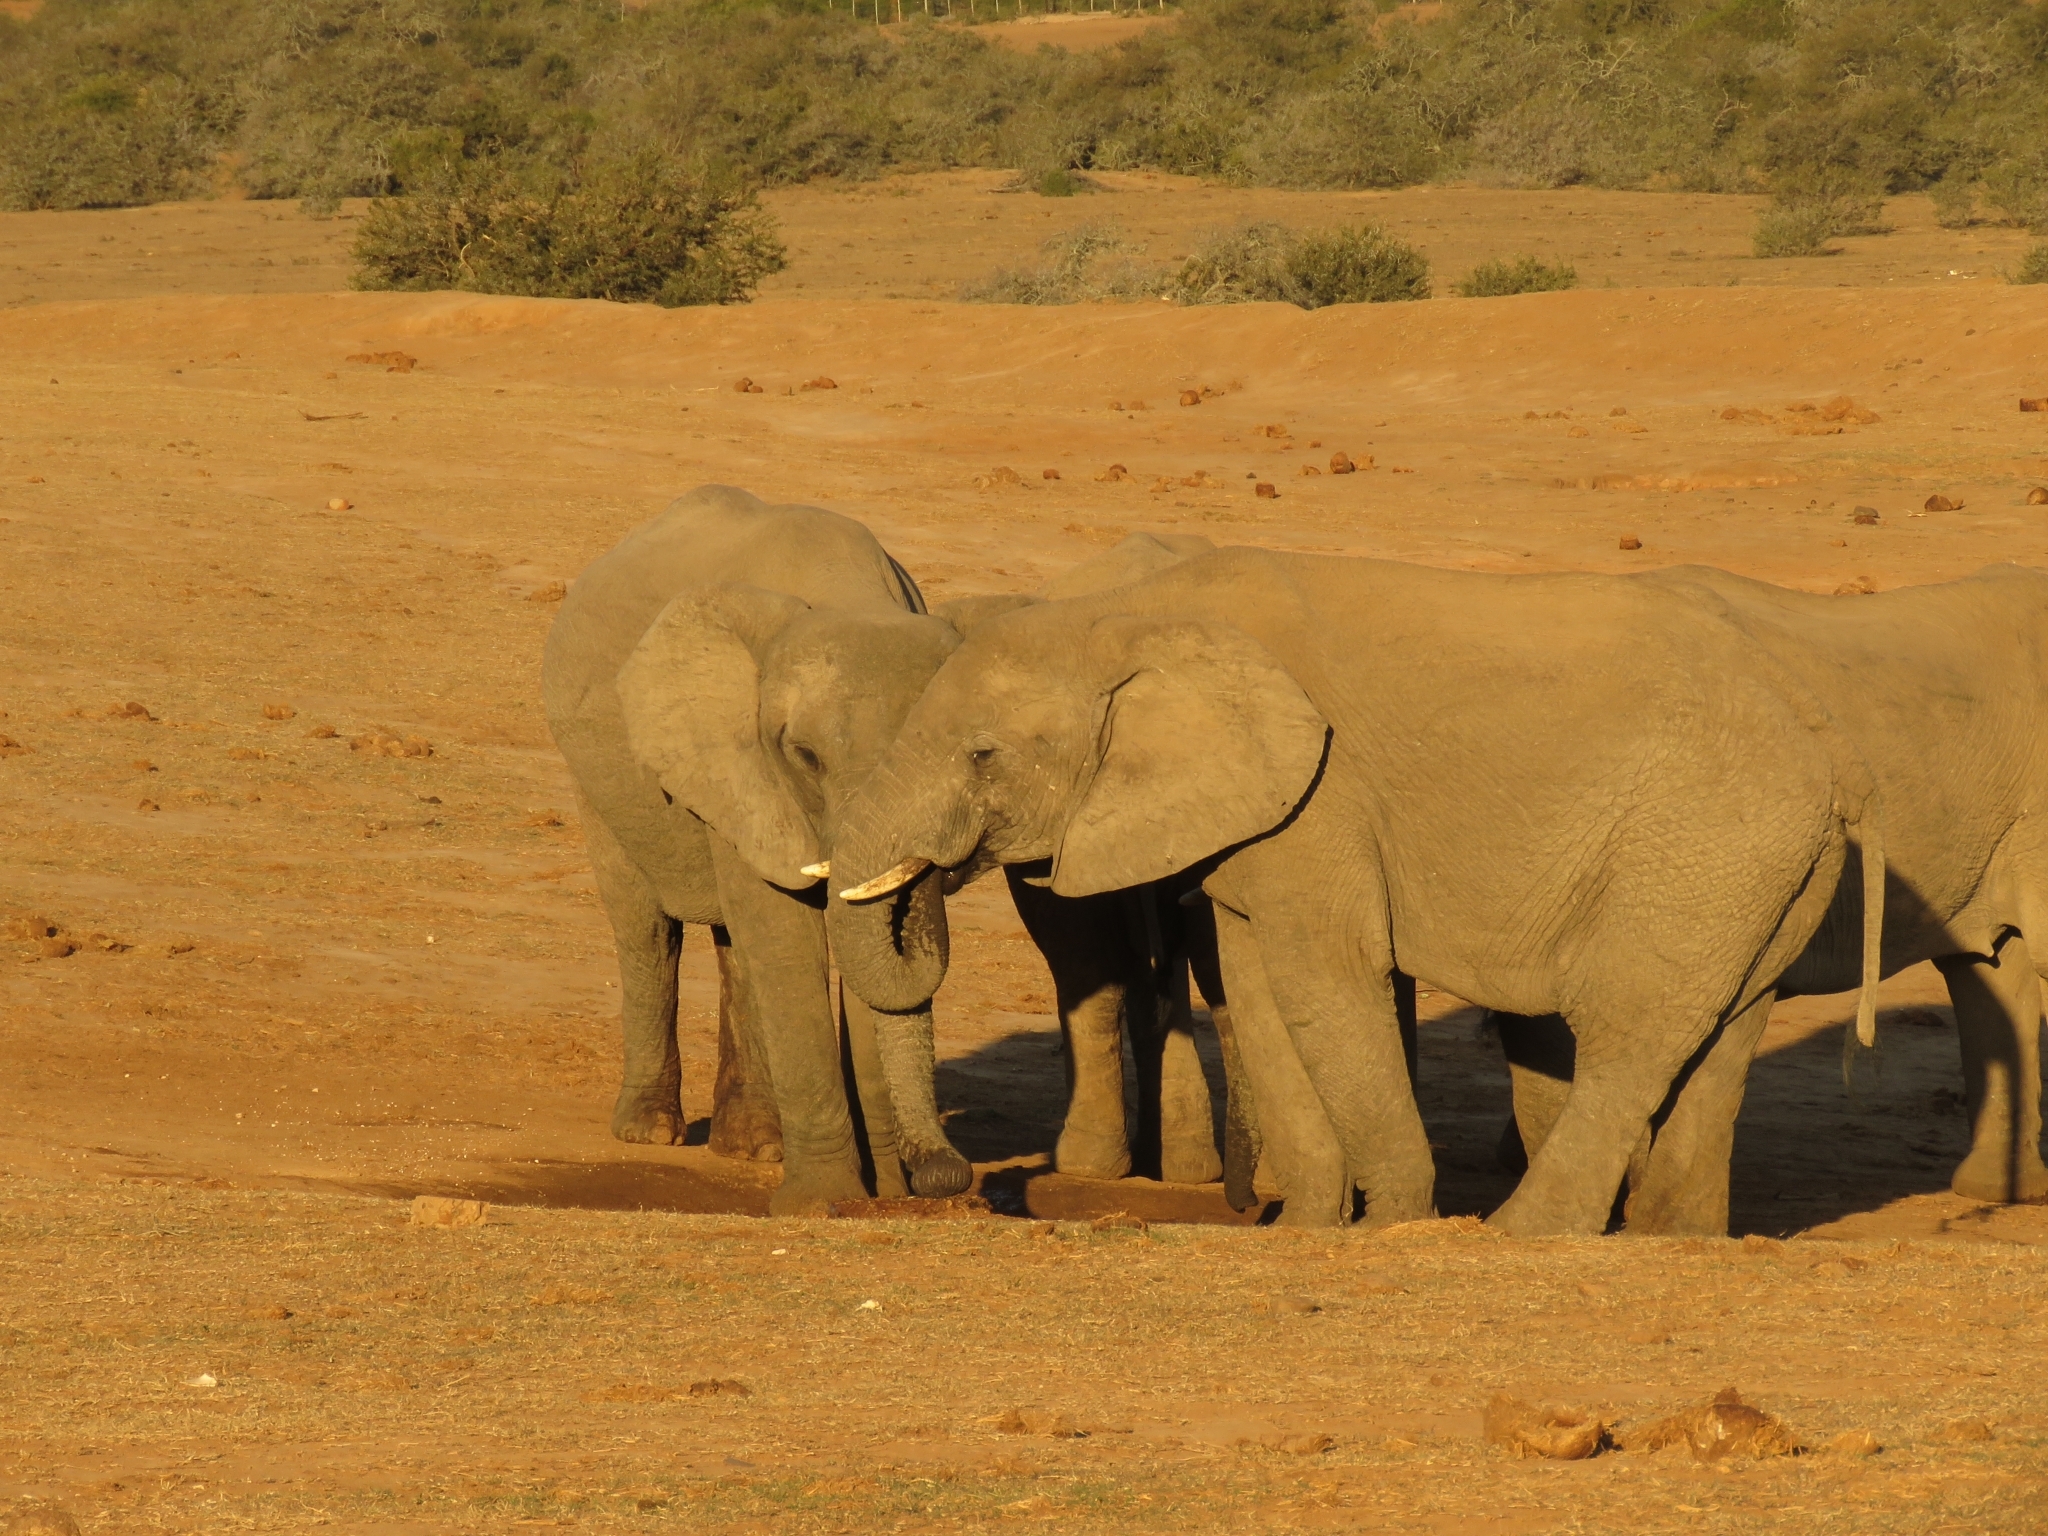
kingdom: Animalia
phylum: Chordata
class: Mammalia
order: Proboscidea
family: Elephantidae
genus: Loxodonta
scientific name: Loxodonta africana
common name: African elephant
